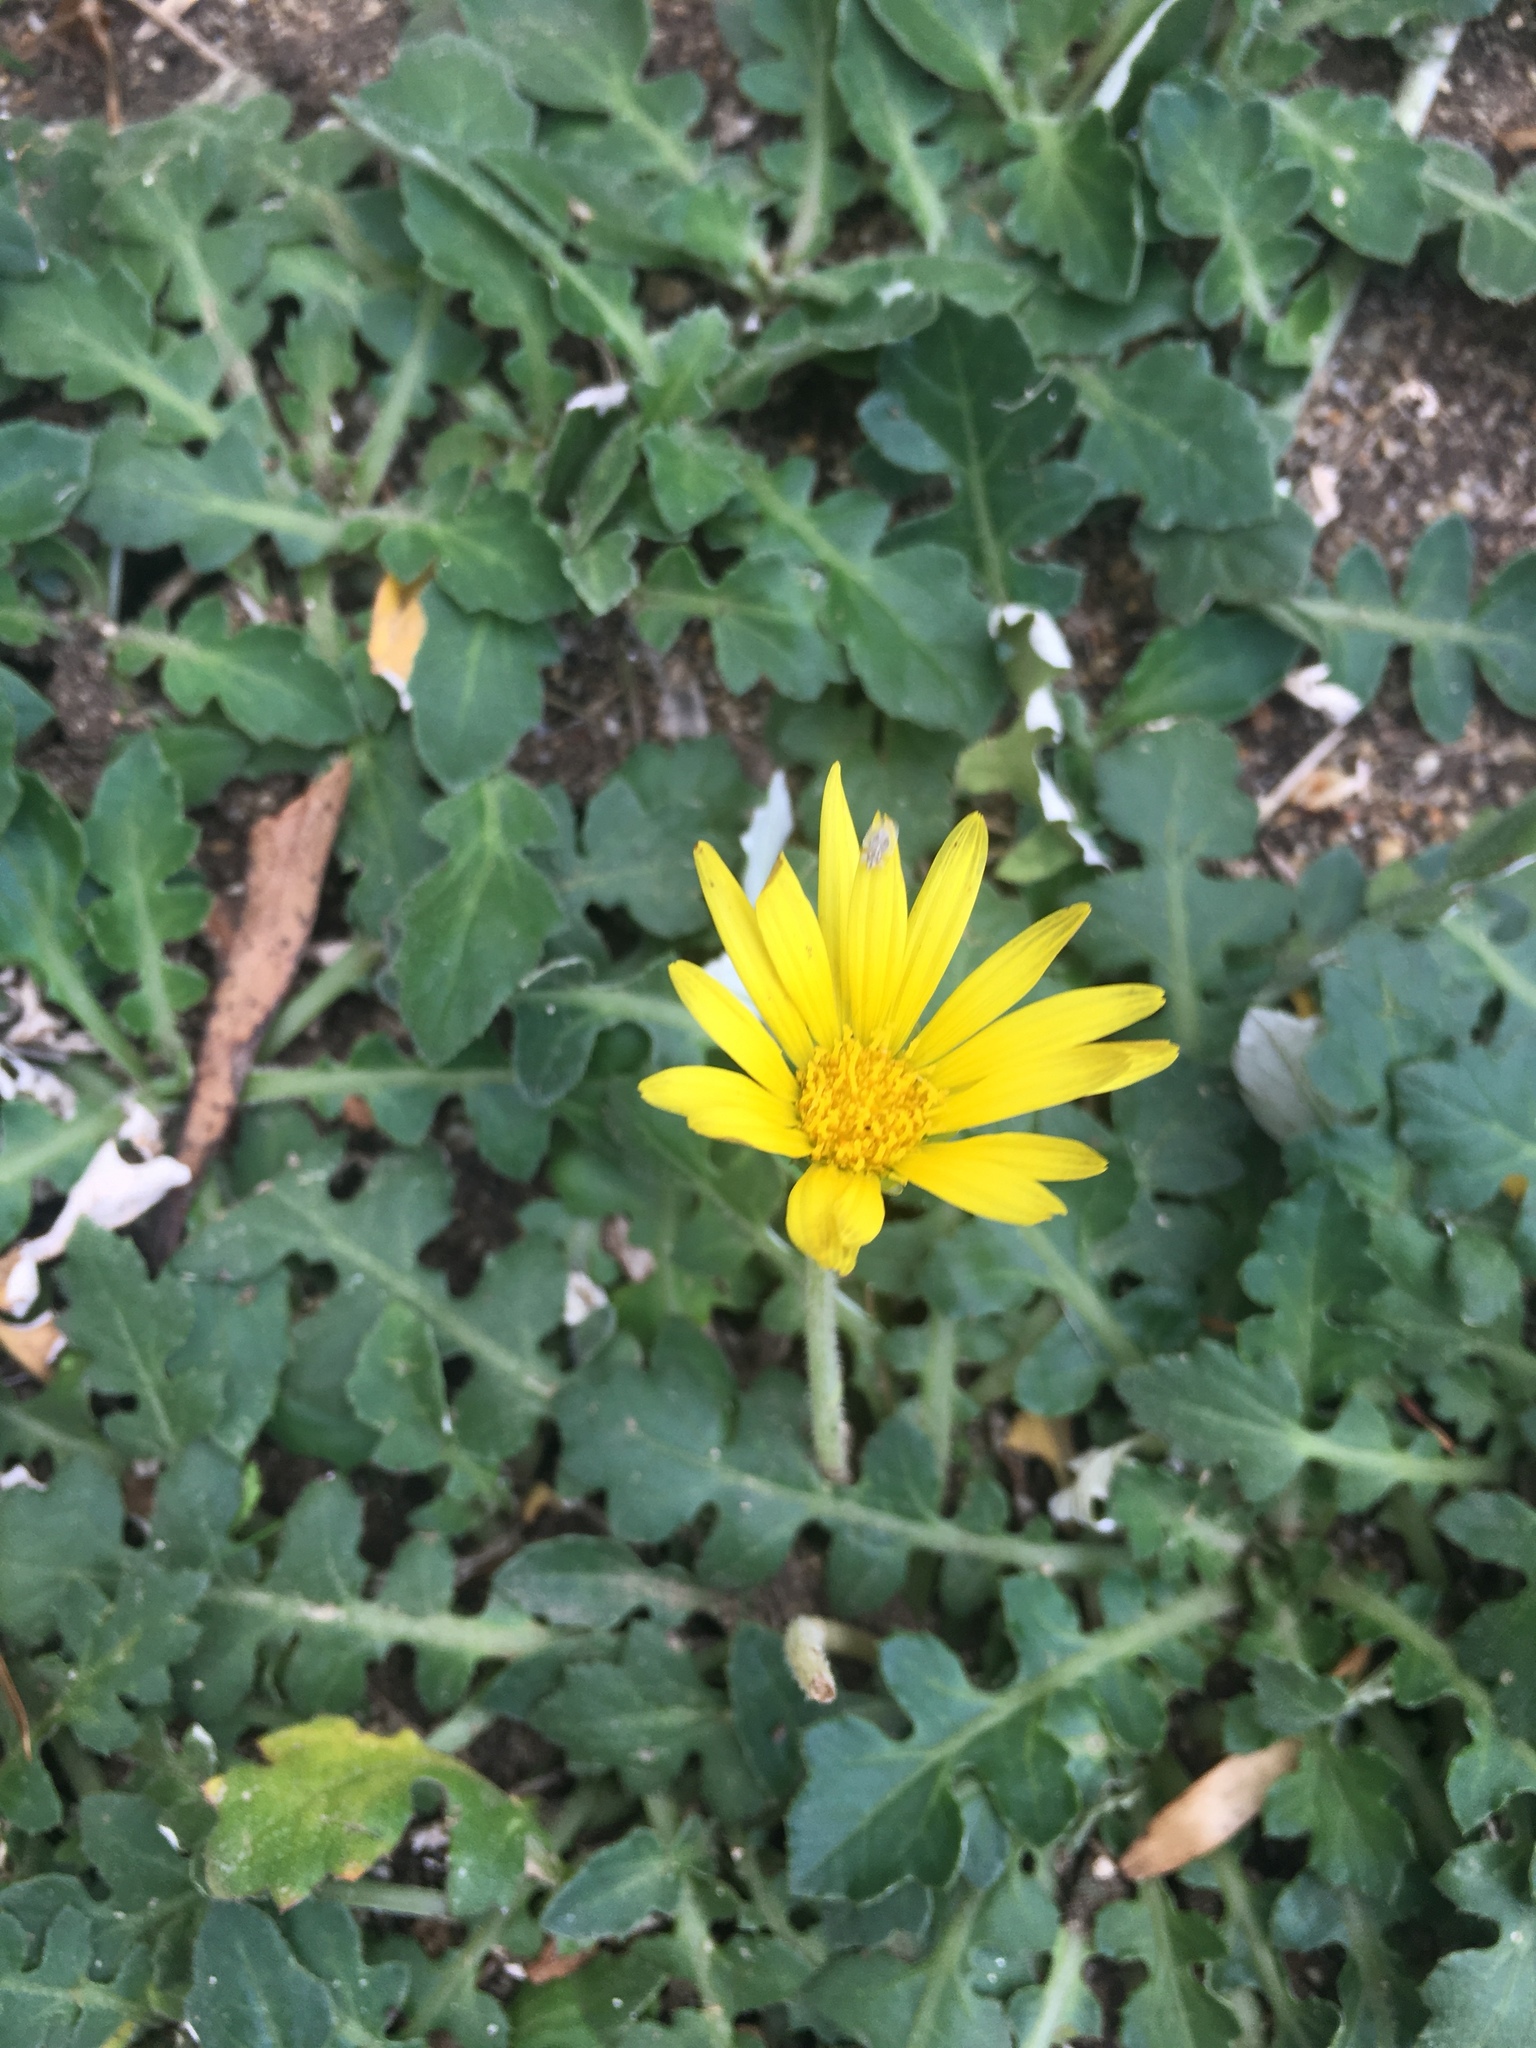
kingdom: Plantae
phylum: Tracheophyta
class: Magnoliopsida
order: Asterales
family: Asteraceae
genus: Arctotheca
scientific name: Arctotheca prostrata
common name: Capeweed
